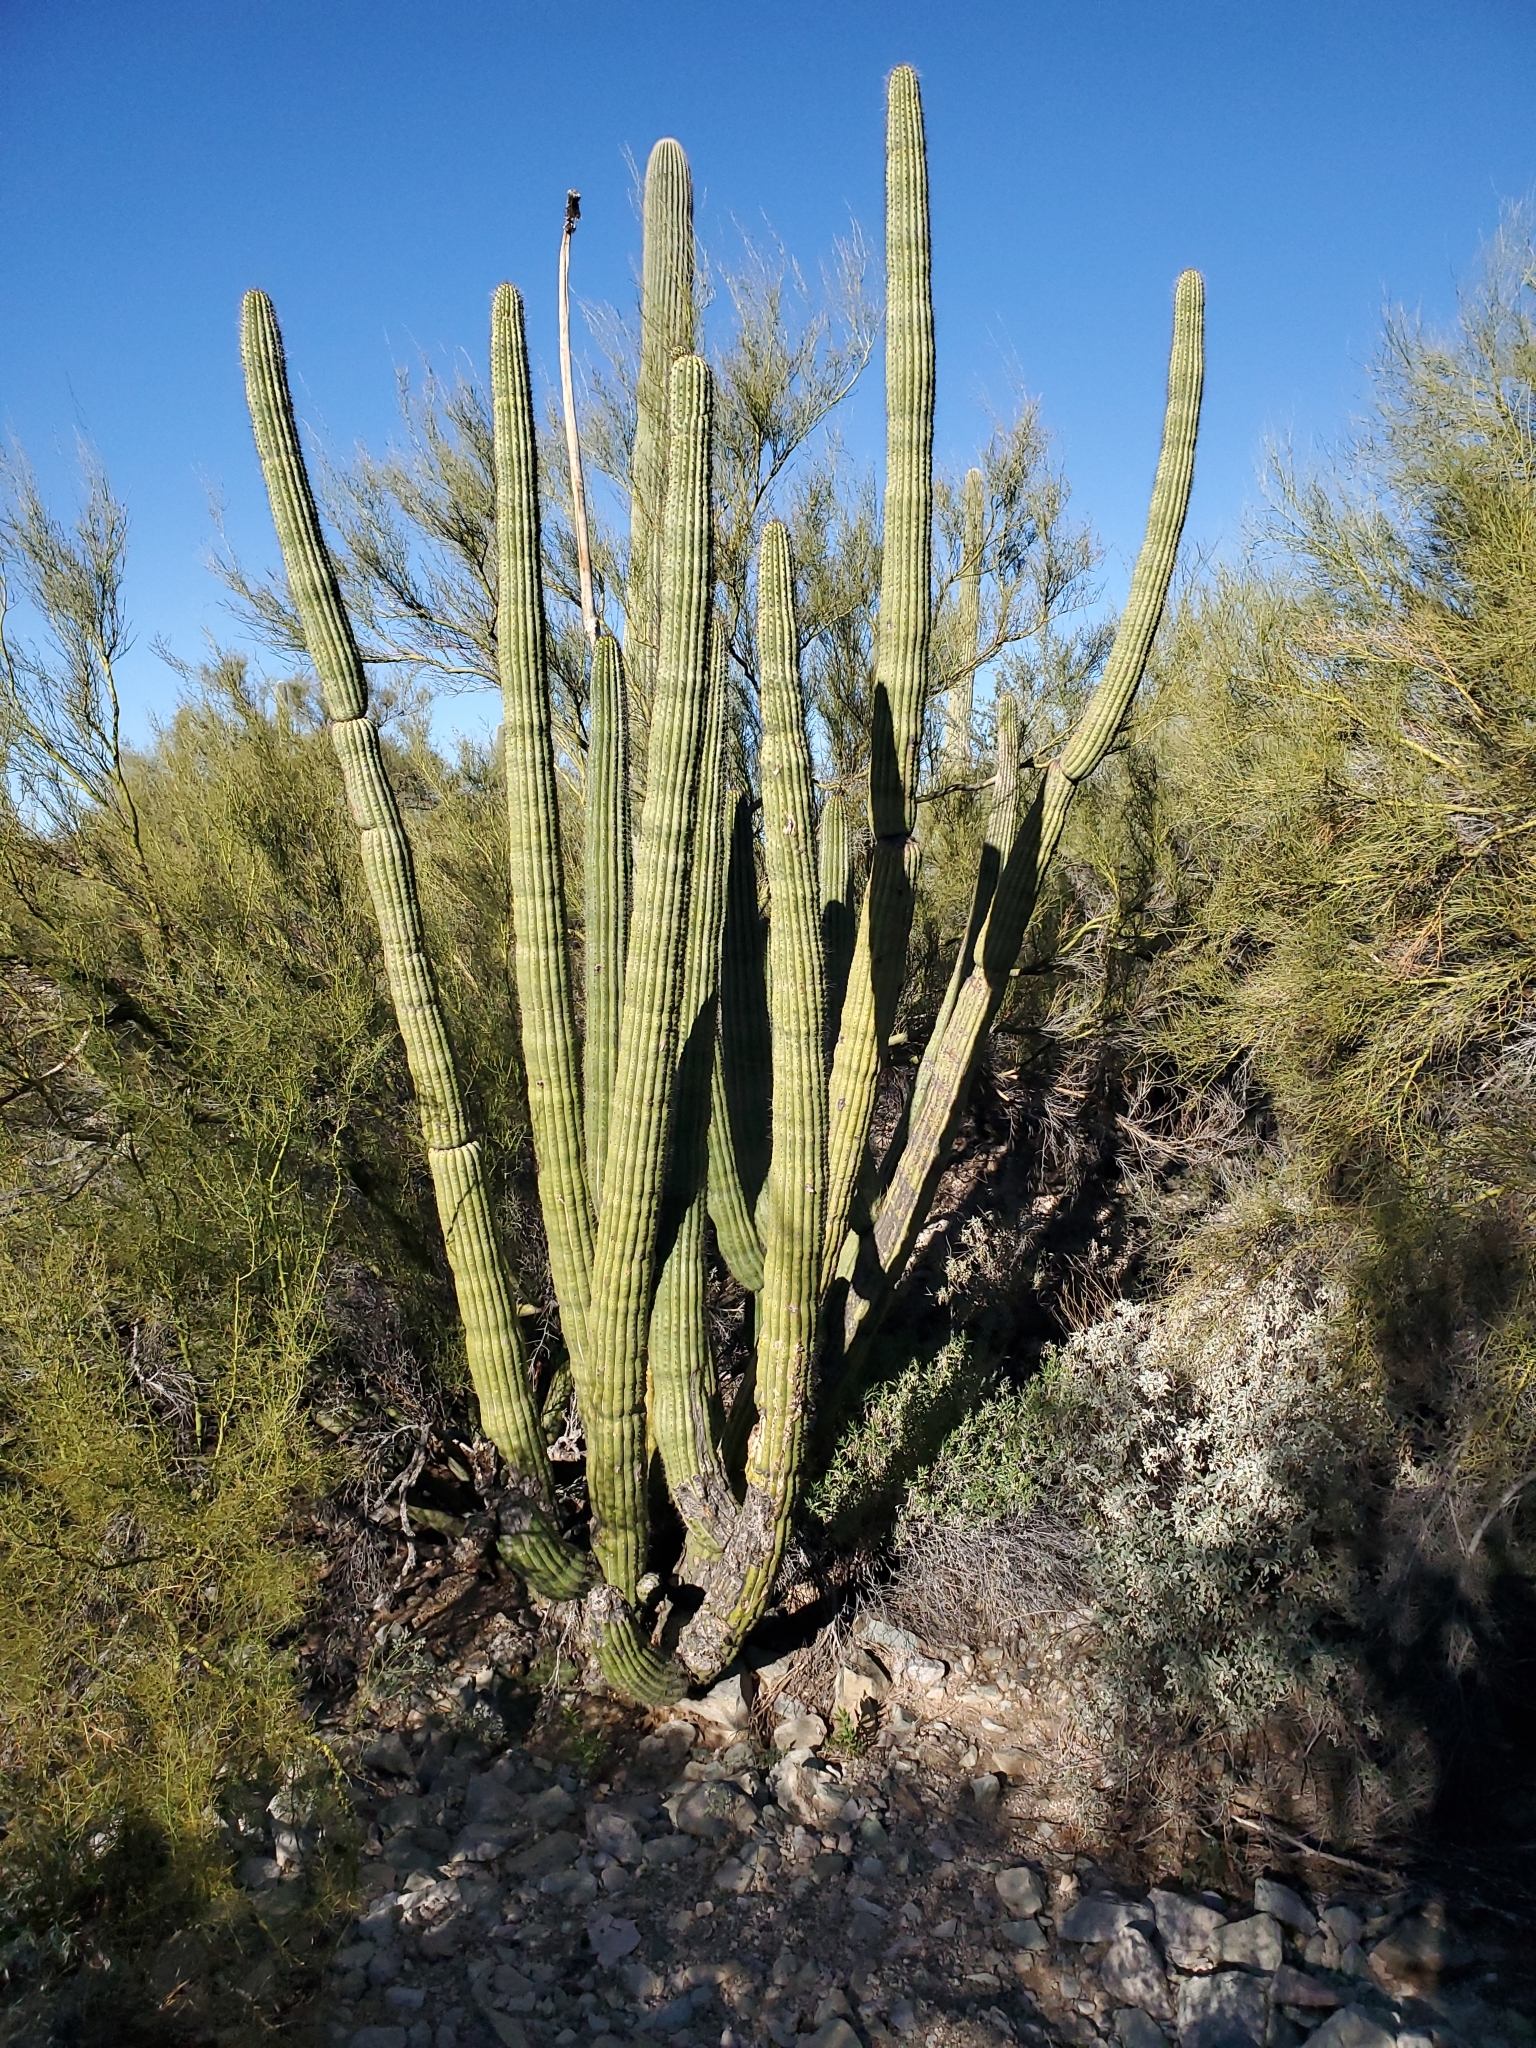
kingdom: Plantae
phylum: Tracheophyta
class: Magnoliopsida
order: Caryophyllales
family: Cactaceae
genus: Stenocereus
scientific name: Stenocereus thurberi
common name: Organ pipe cactus
